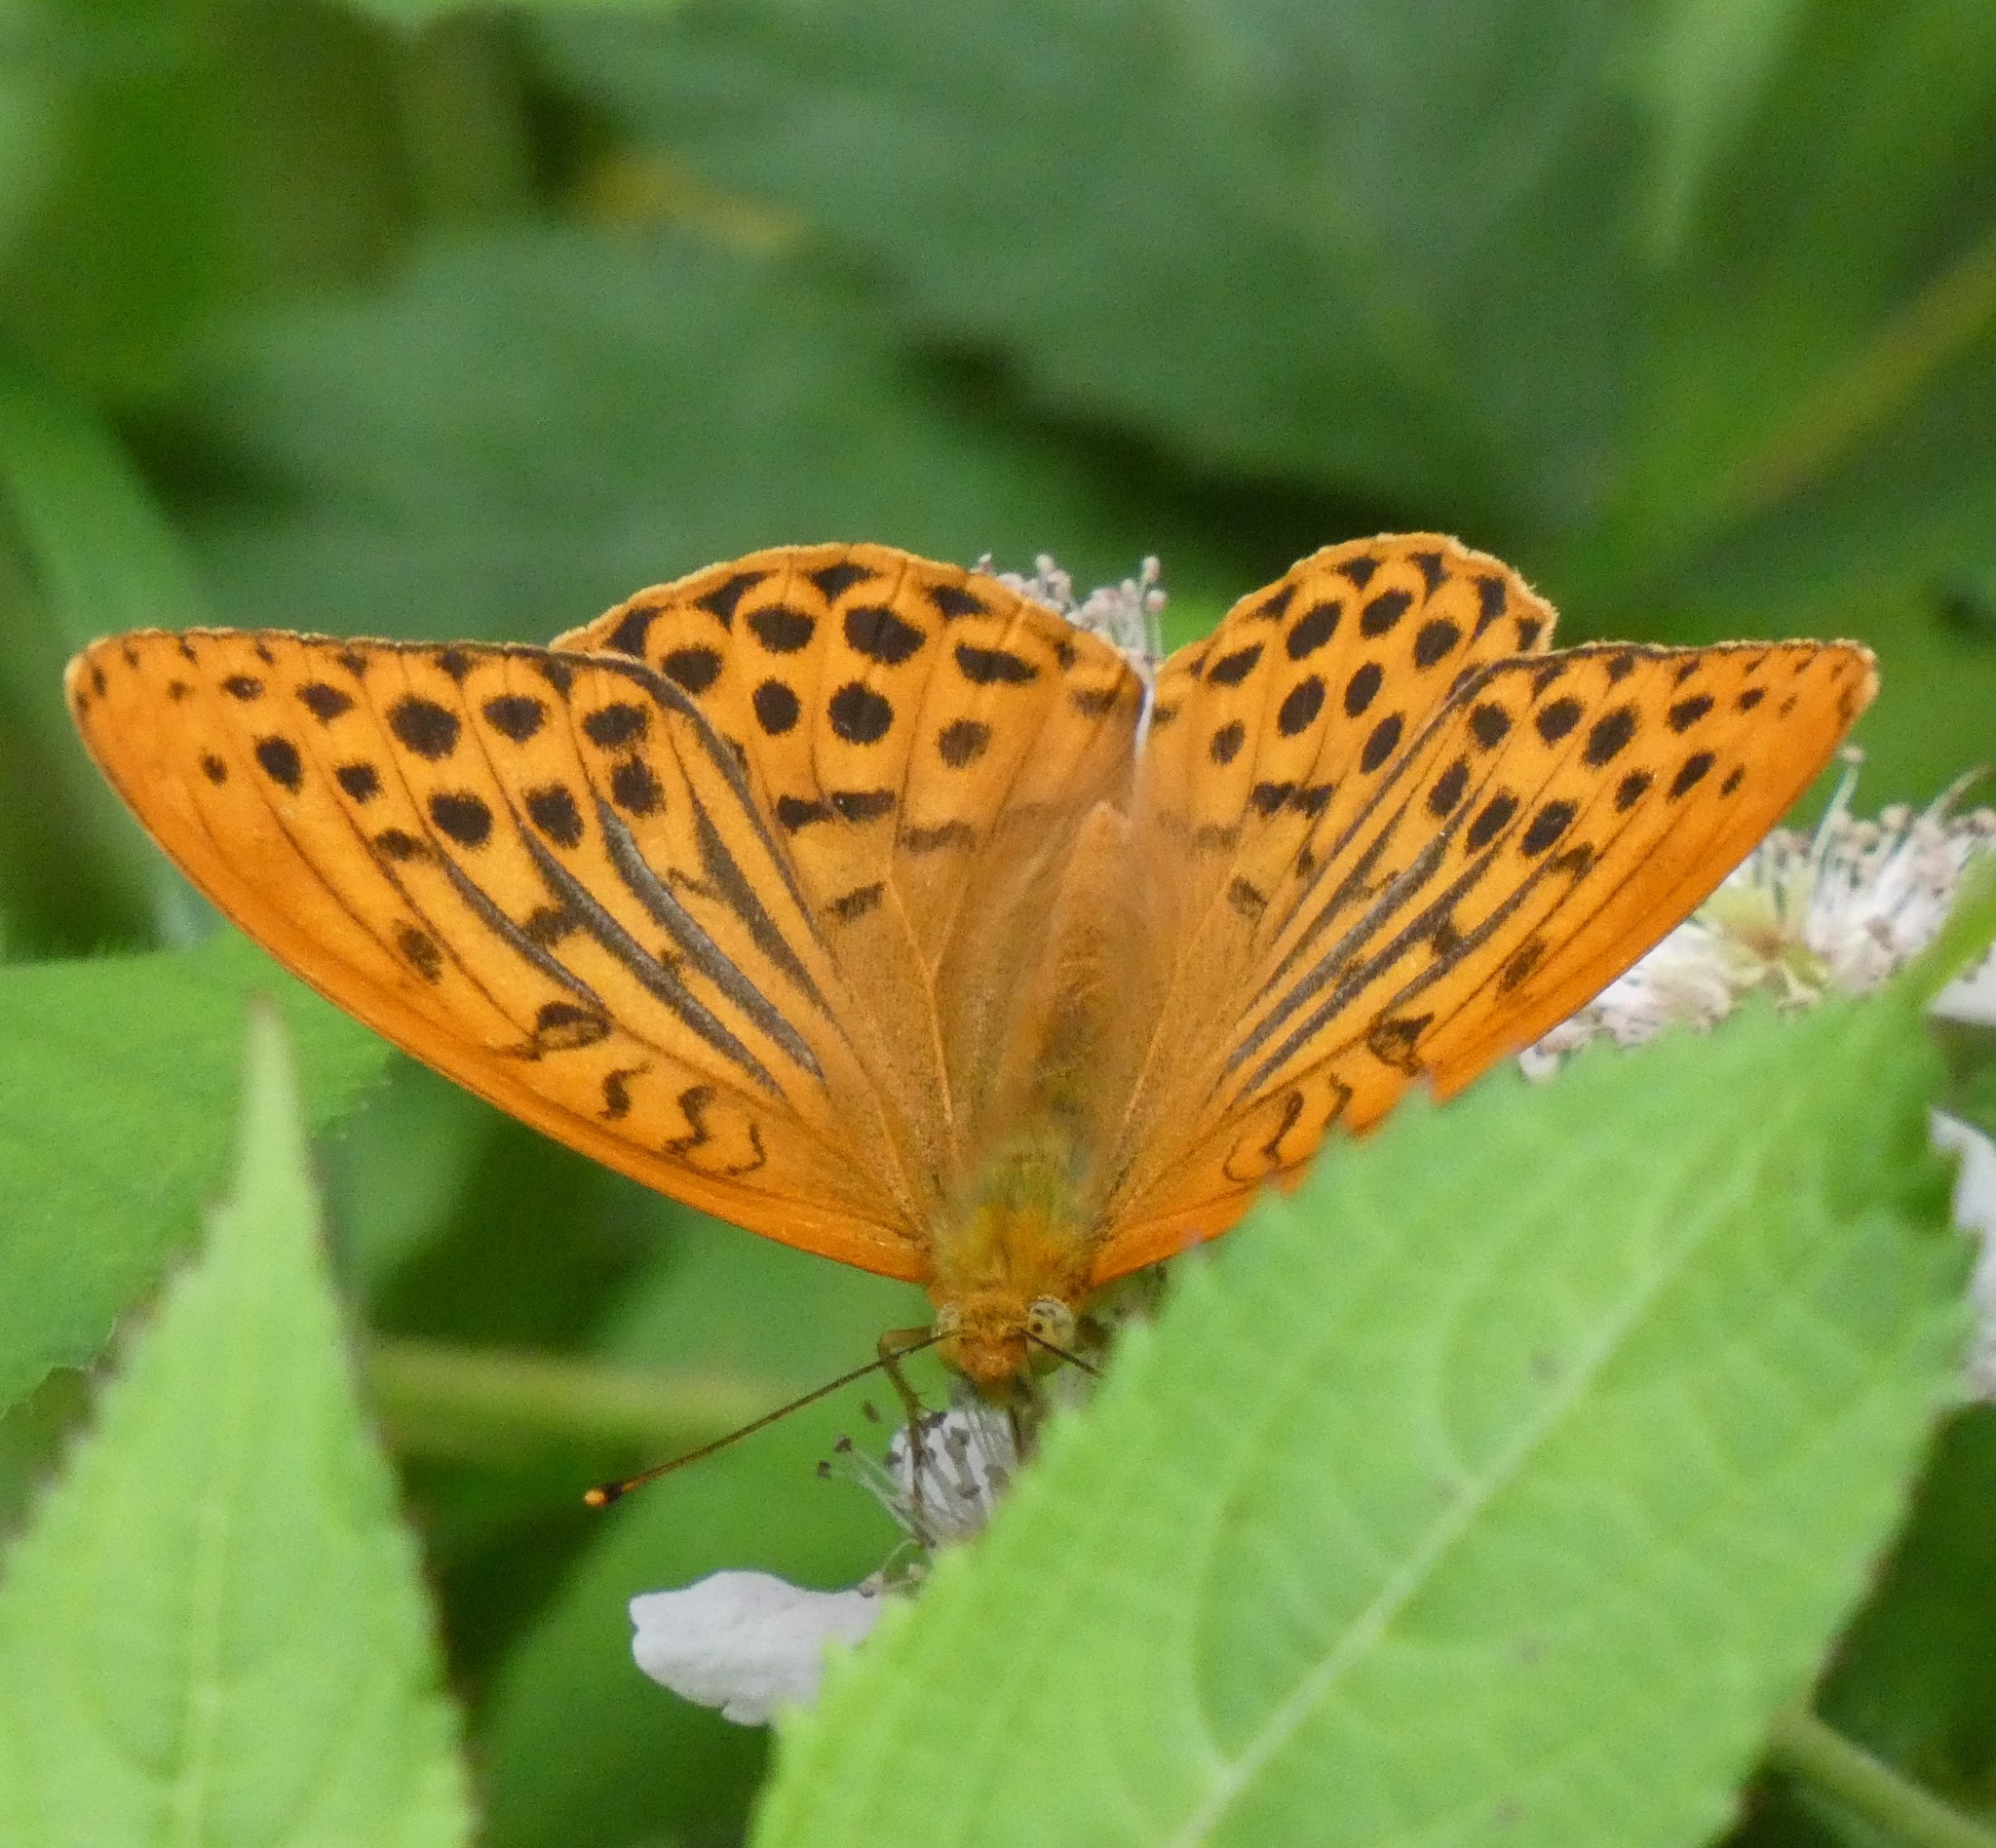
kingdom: Animalia
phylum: Arthropoda
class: Insecta
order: Lepidoptera
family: Nymphalidae
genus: Argynnis
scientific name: Argynnis paphia
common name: Silver-washed fritillary
